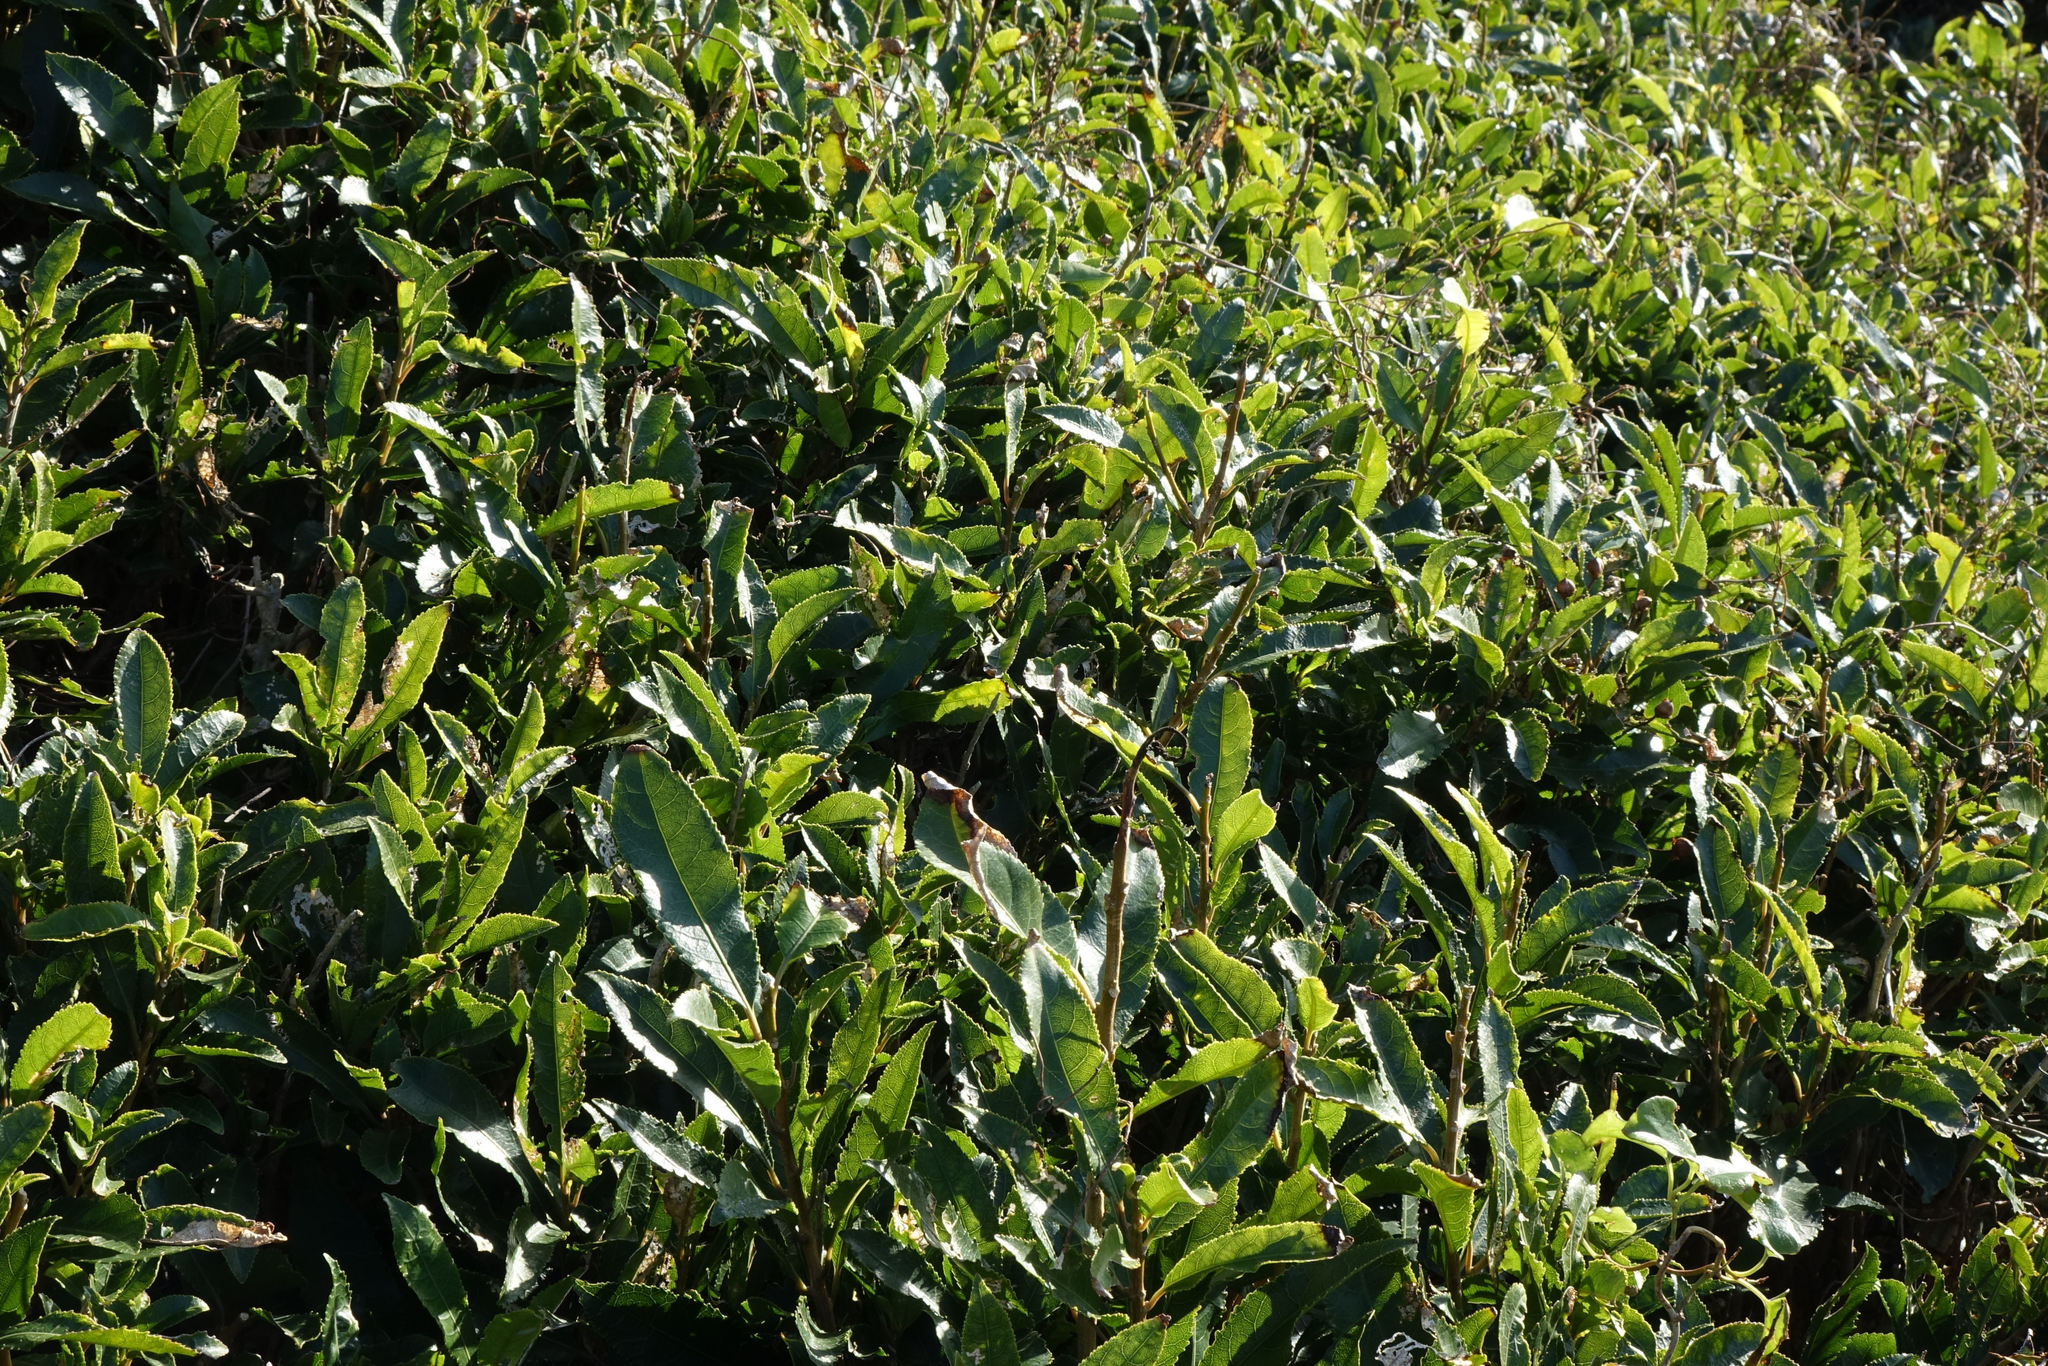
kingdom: Plantae
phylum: Tracheophyta
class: Magnoliopsida
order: Malpighiales
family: Violaceae
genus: Melicytus
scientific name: Melicytus ramiflorus
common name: Mahoe
